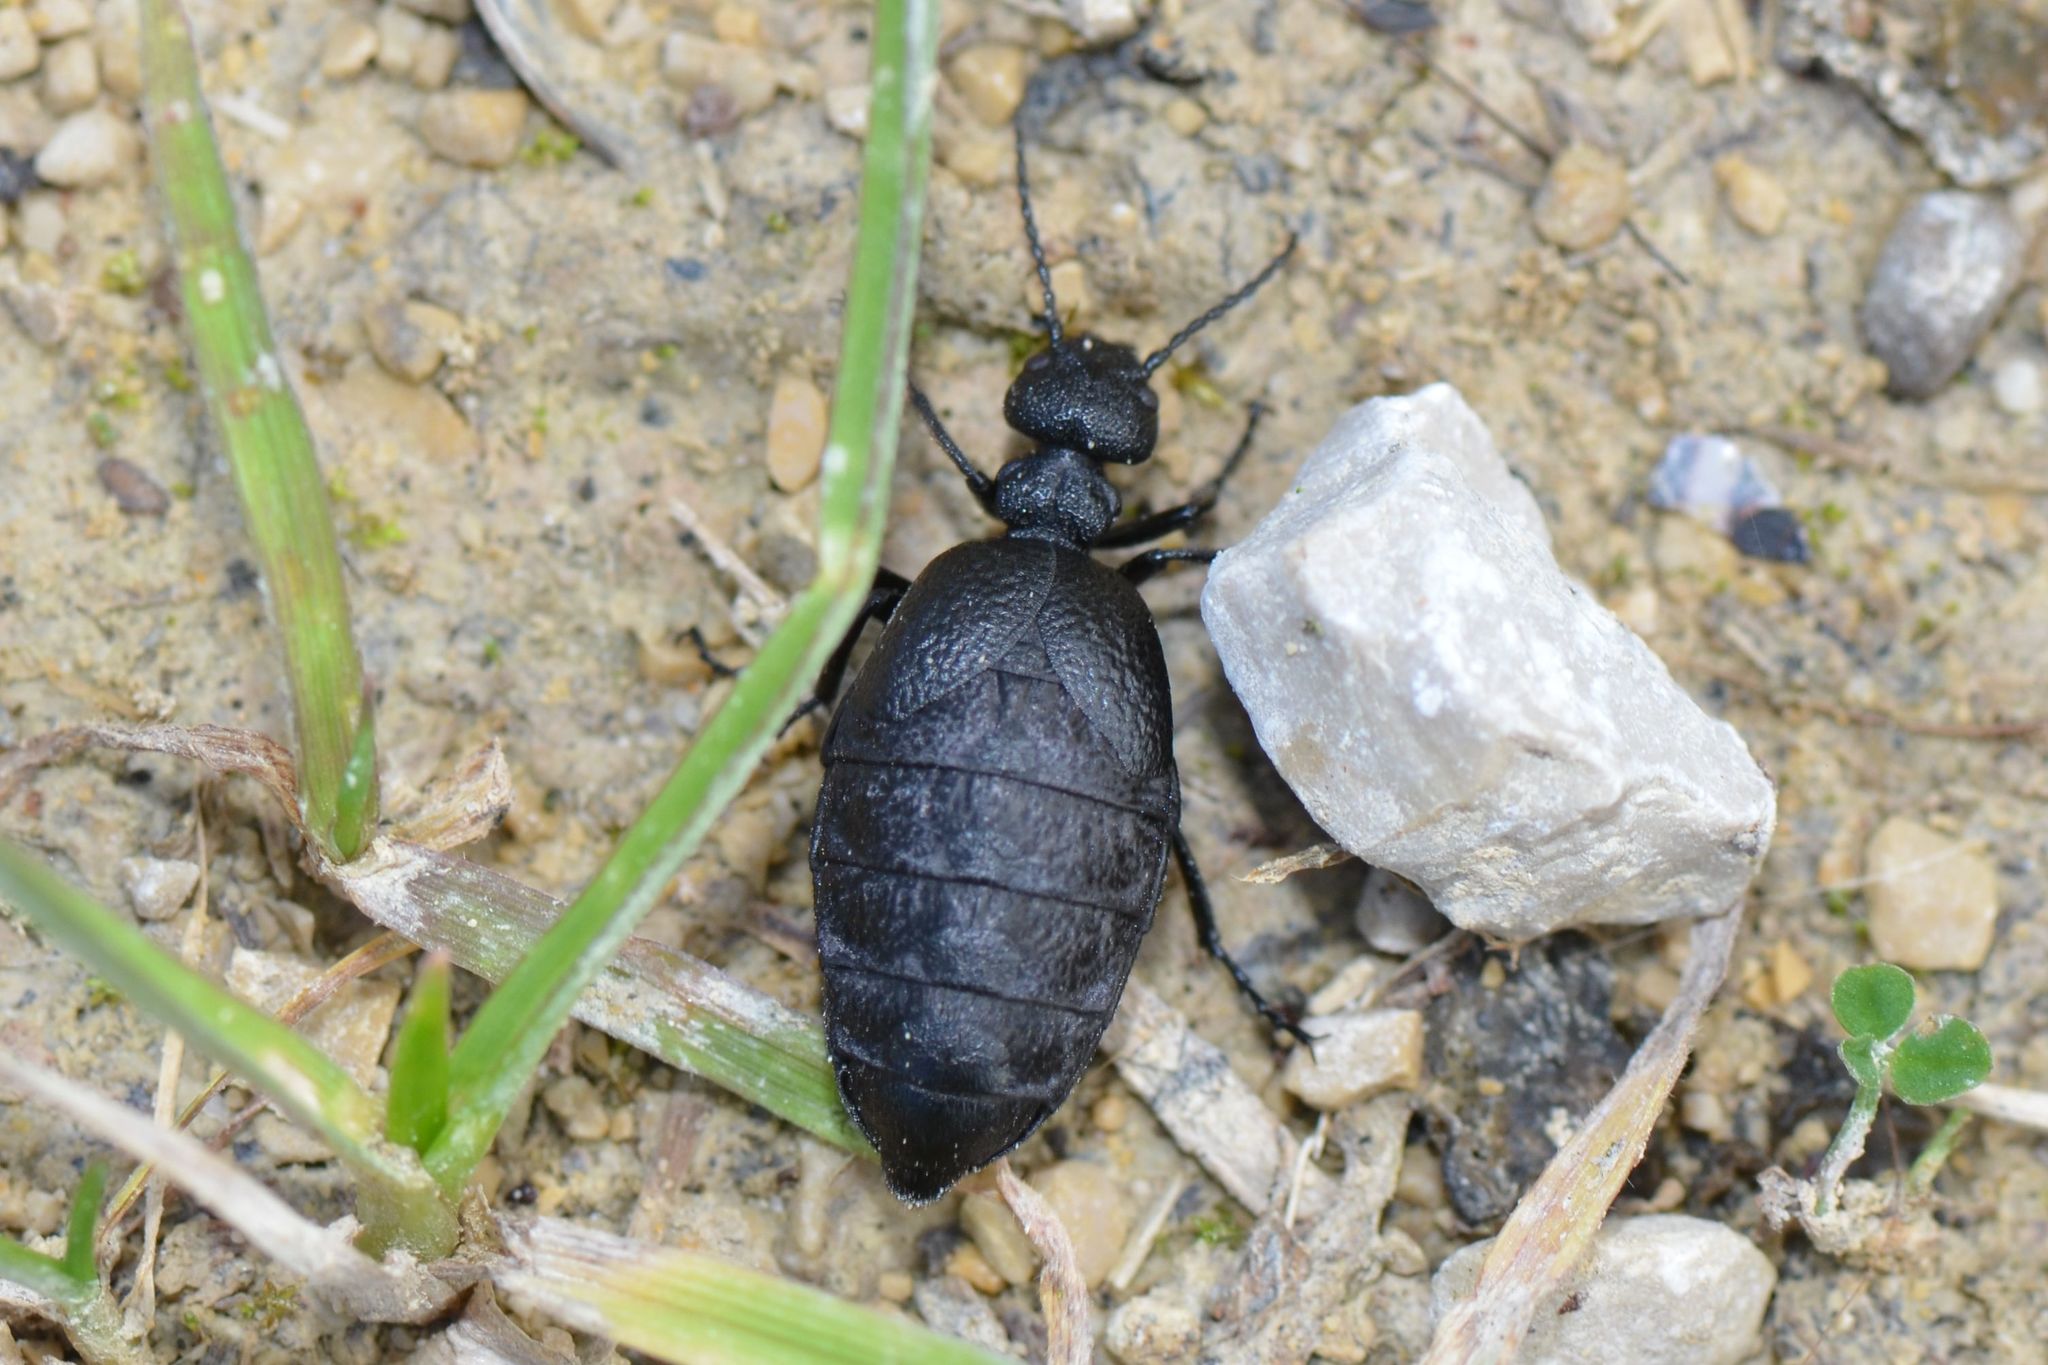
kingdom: Animalia
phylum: Arthropoda
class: Insecta
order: Coleoptera
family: Meloidae
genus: Meloe
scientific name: Meloe rugosus
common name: Rugged oil-beetle
